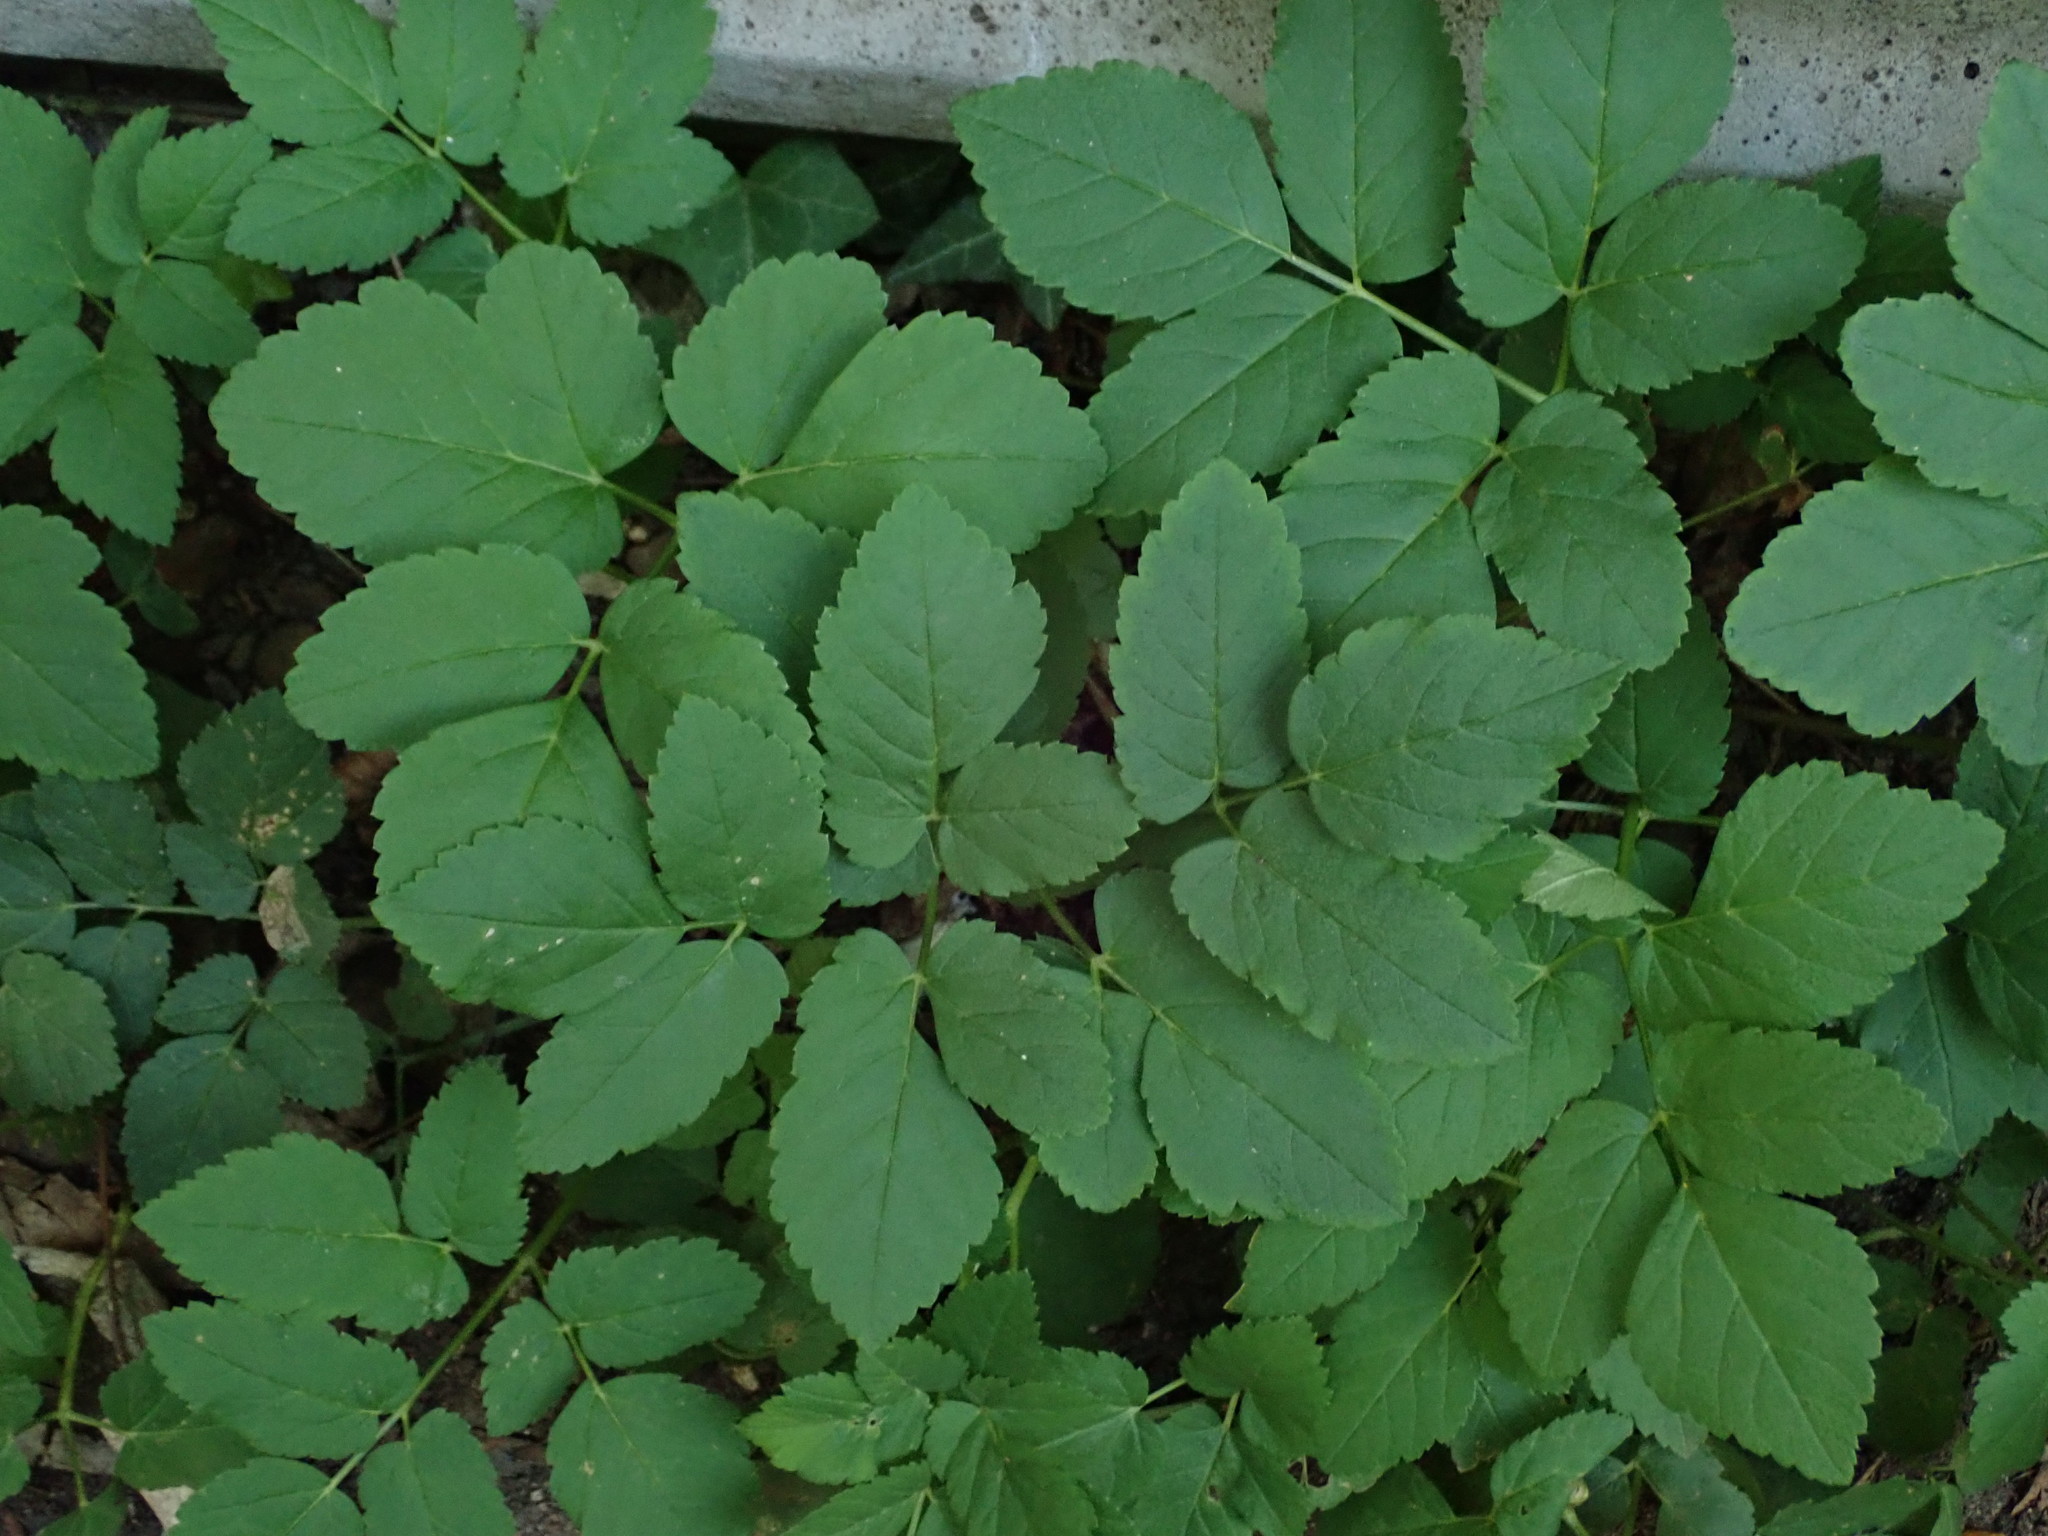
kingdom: Plantae
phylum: Tracheophyta
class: Magnoliopsida
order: Apiales
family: Apiaceae
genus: Aegopodium
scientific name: Aegopodium podagraria
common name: Ground-elder
